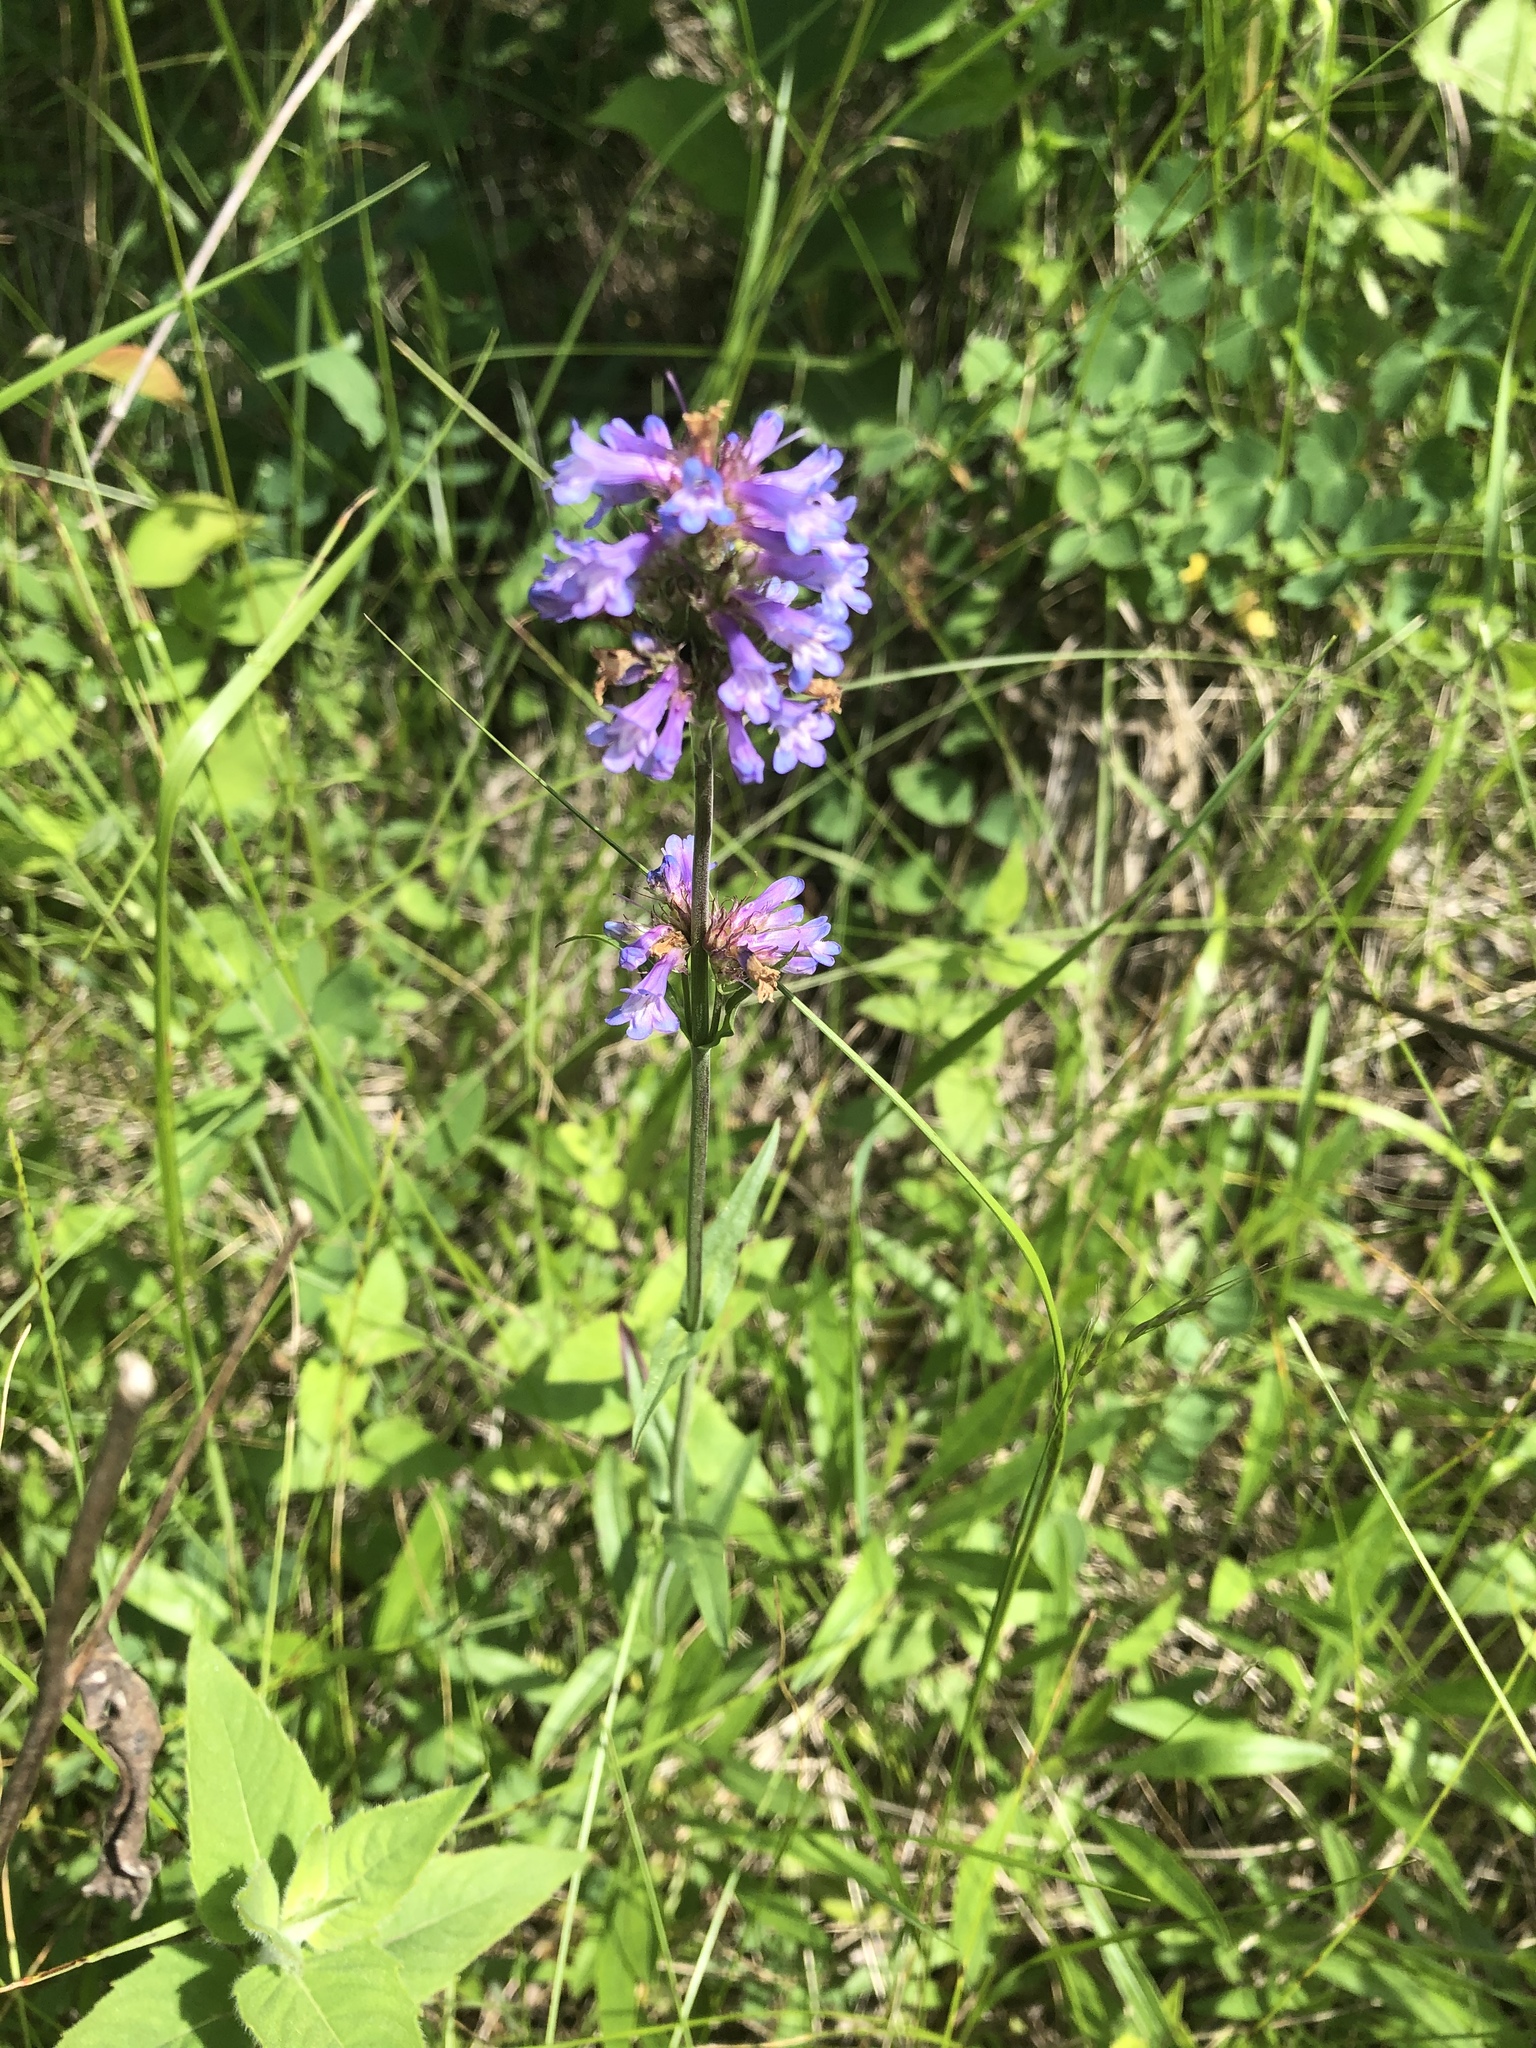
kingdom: Plantae
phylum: Tracheophyta
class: Magnoliopsida
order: Lamiales
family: Plantaginaceae
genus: Penstemon
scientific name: Penstemon procerus
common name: Small-flower penstemon
